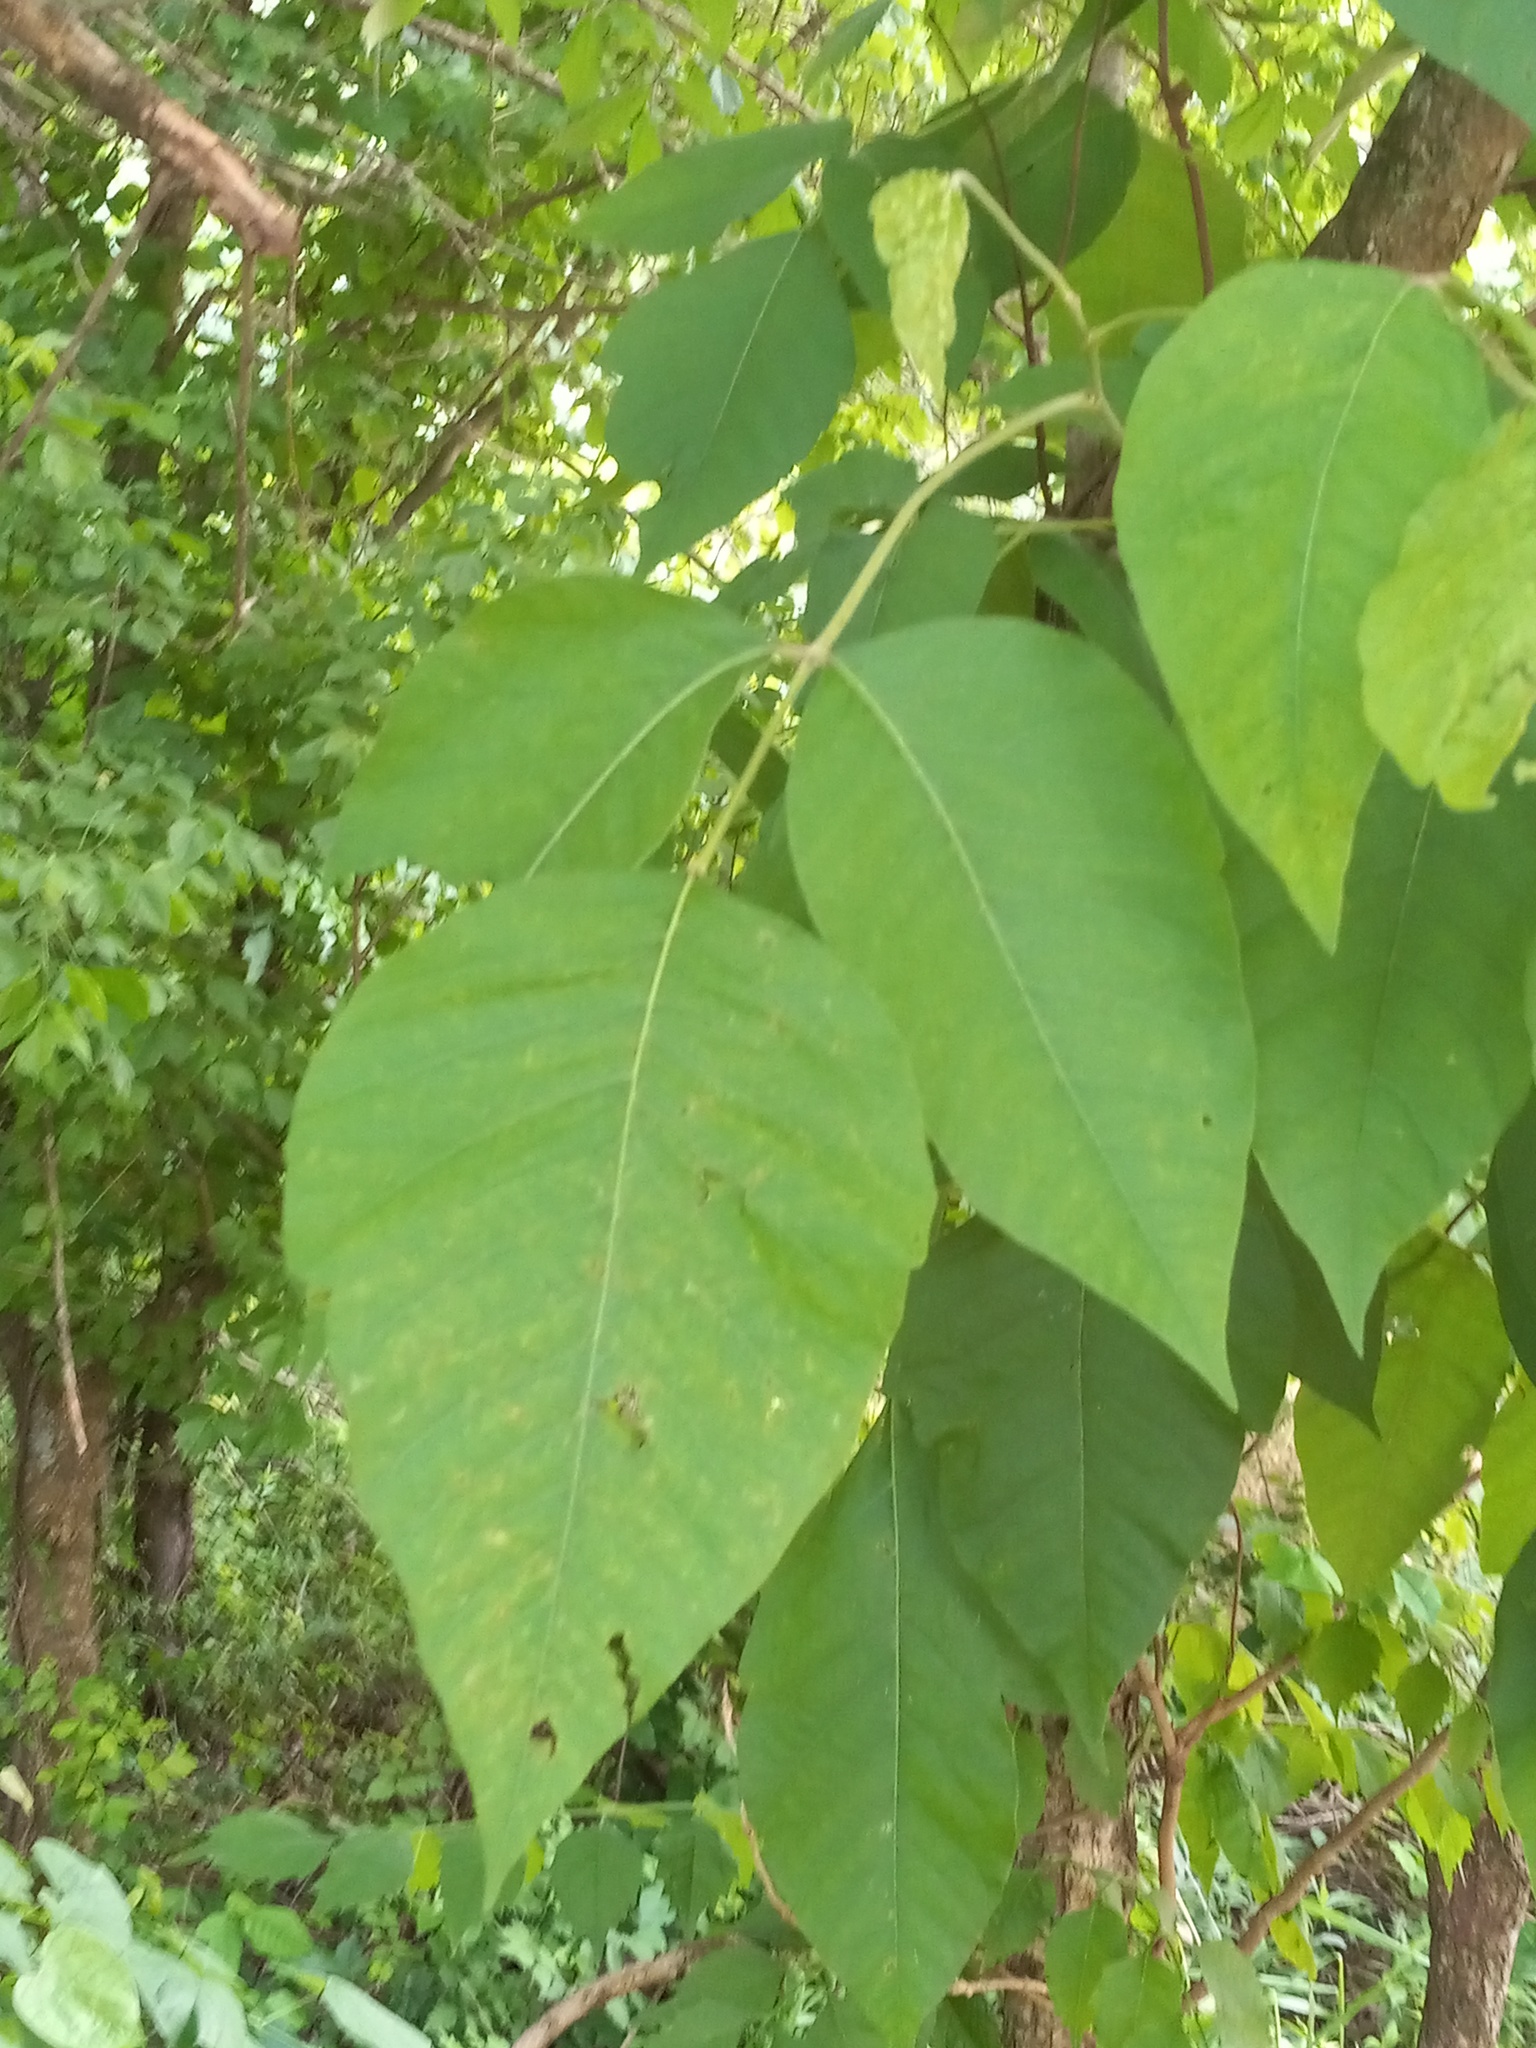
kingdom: Plantae
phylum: Tracheophyta
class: Magnoliopsida
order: Sapindales
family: Anacardiaceae
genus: Toxicodendron
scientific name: Toxicodendron radicans
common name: Poison ivy
